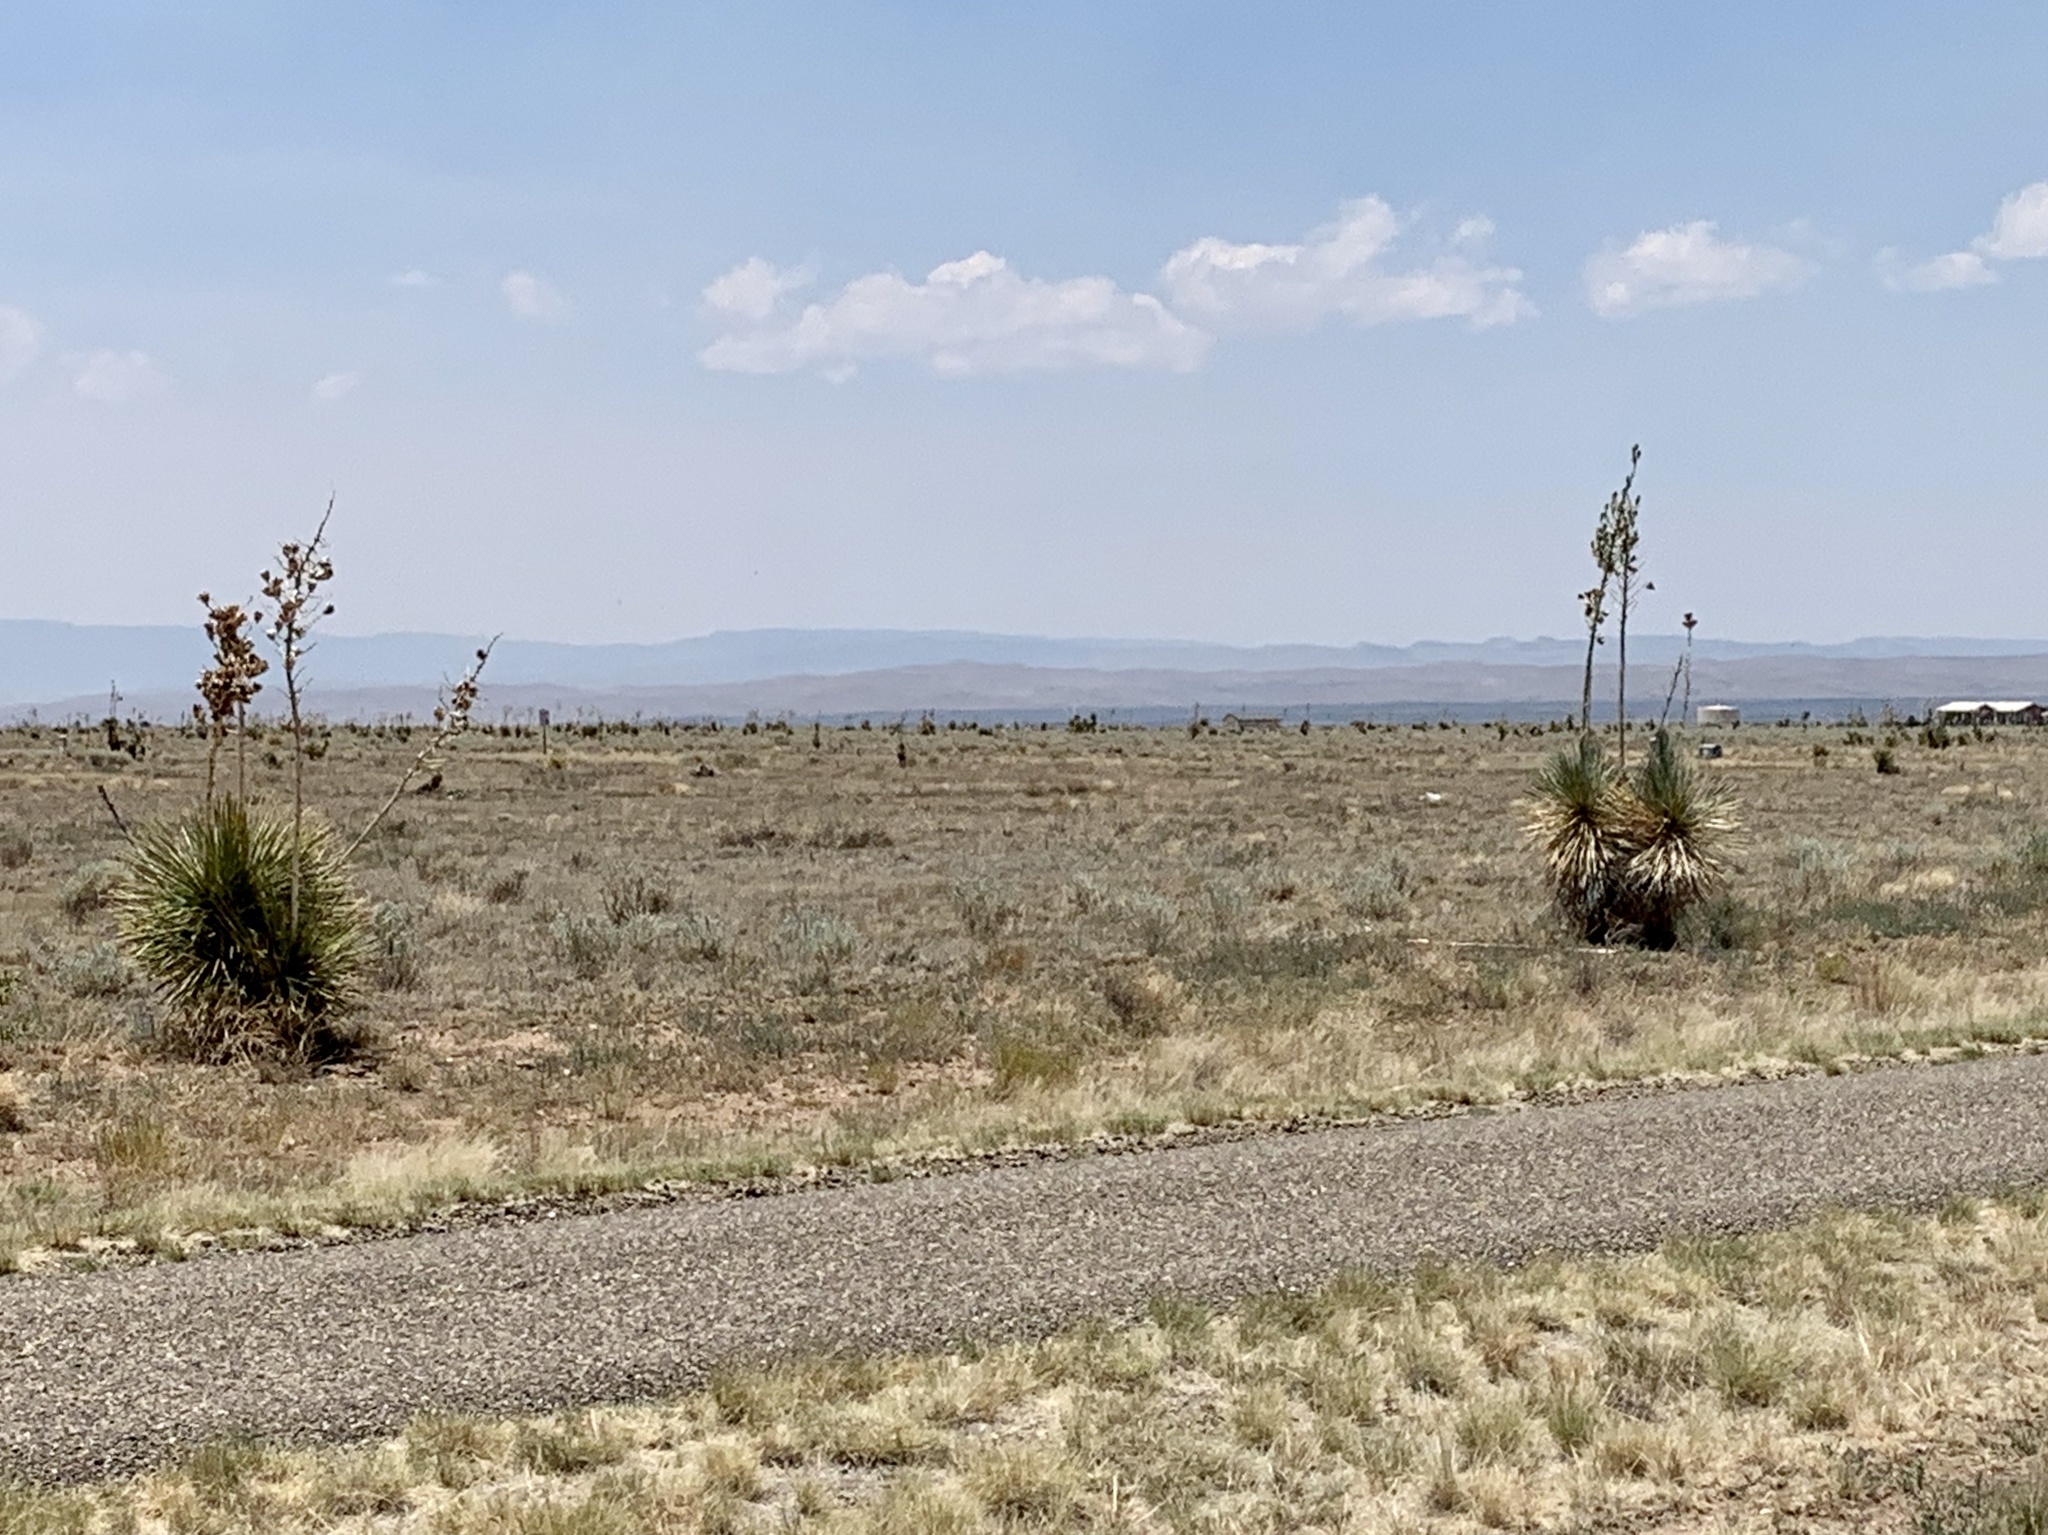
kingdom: Plantae
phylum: Tracheophyta
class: Liliopsida
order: Asparagales
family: Asparagaceae
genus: Yucca
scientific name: Yucca elata
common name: Palmella
